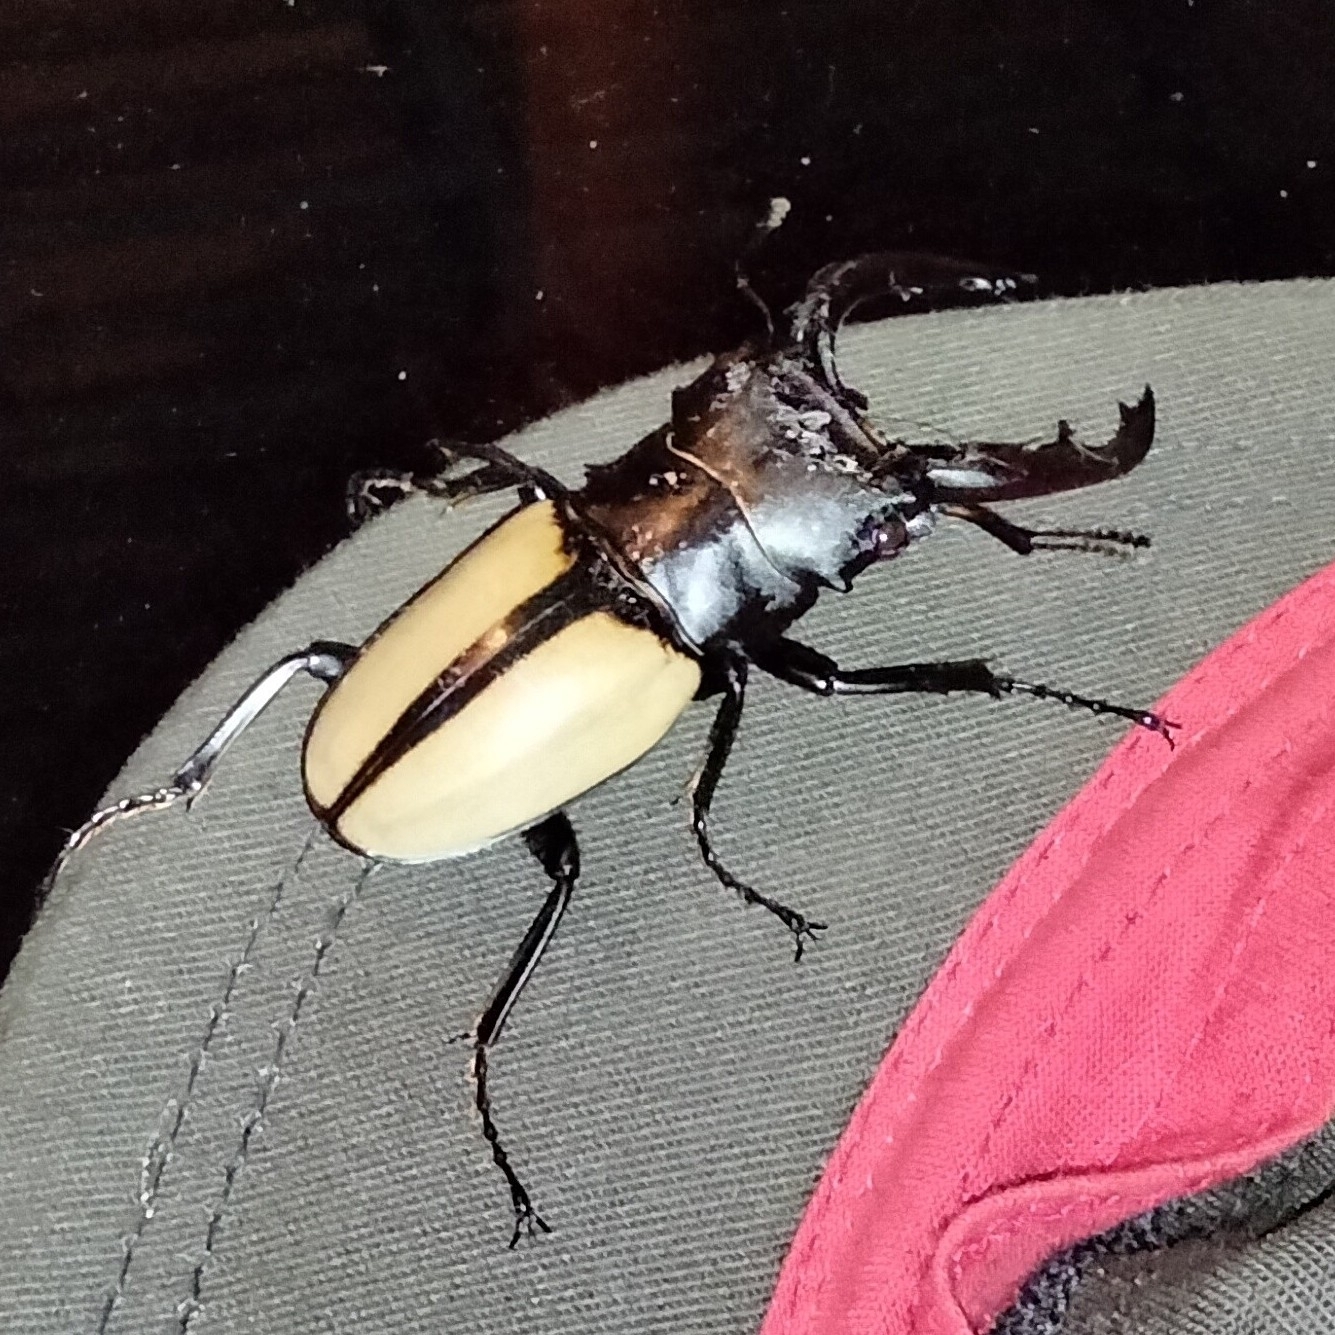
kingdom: Animalia
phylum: Arthropoda
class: Insecta
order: Coleoptera
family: Lucanidae
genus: Odontolabis
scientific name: Odontolabis versicolor
